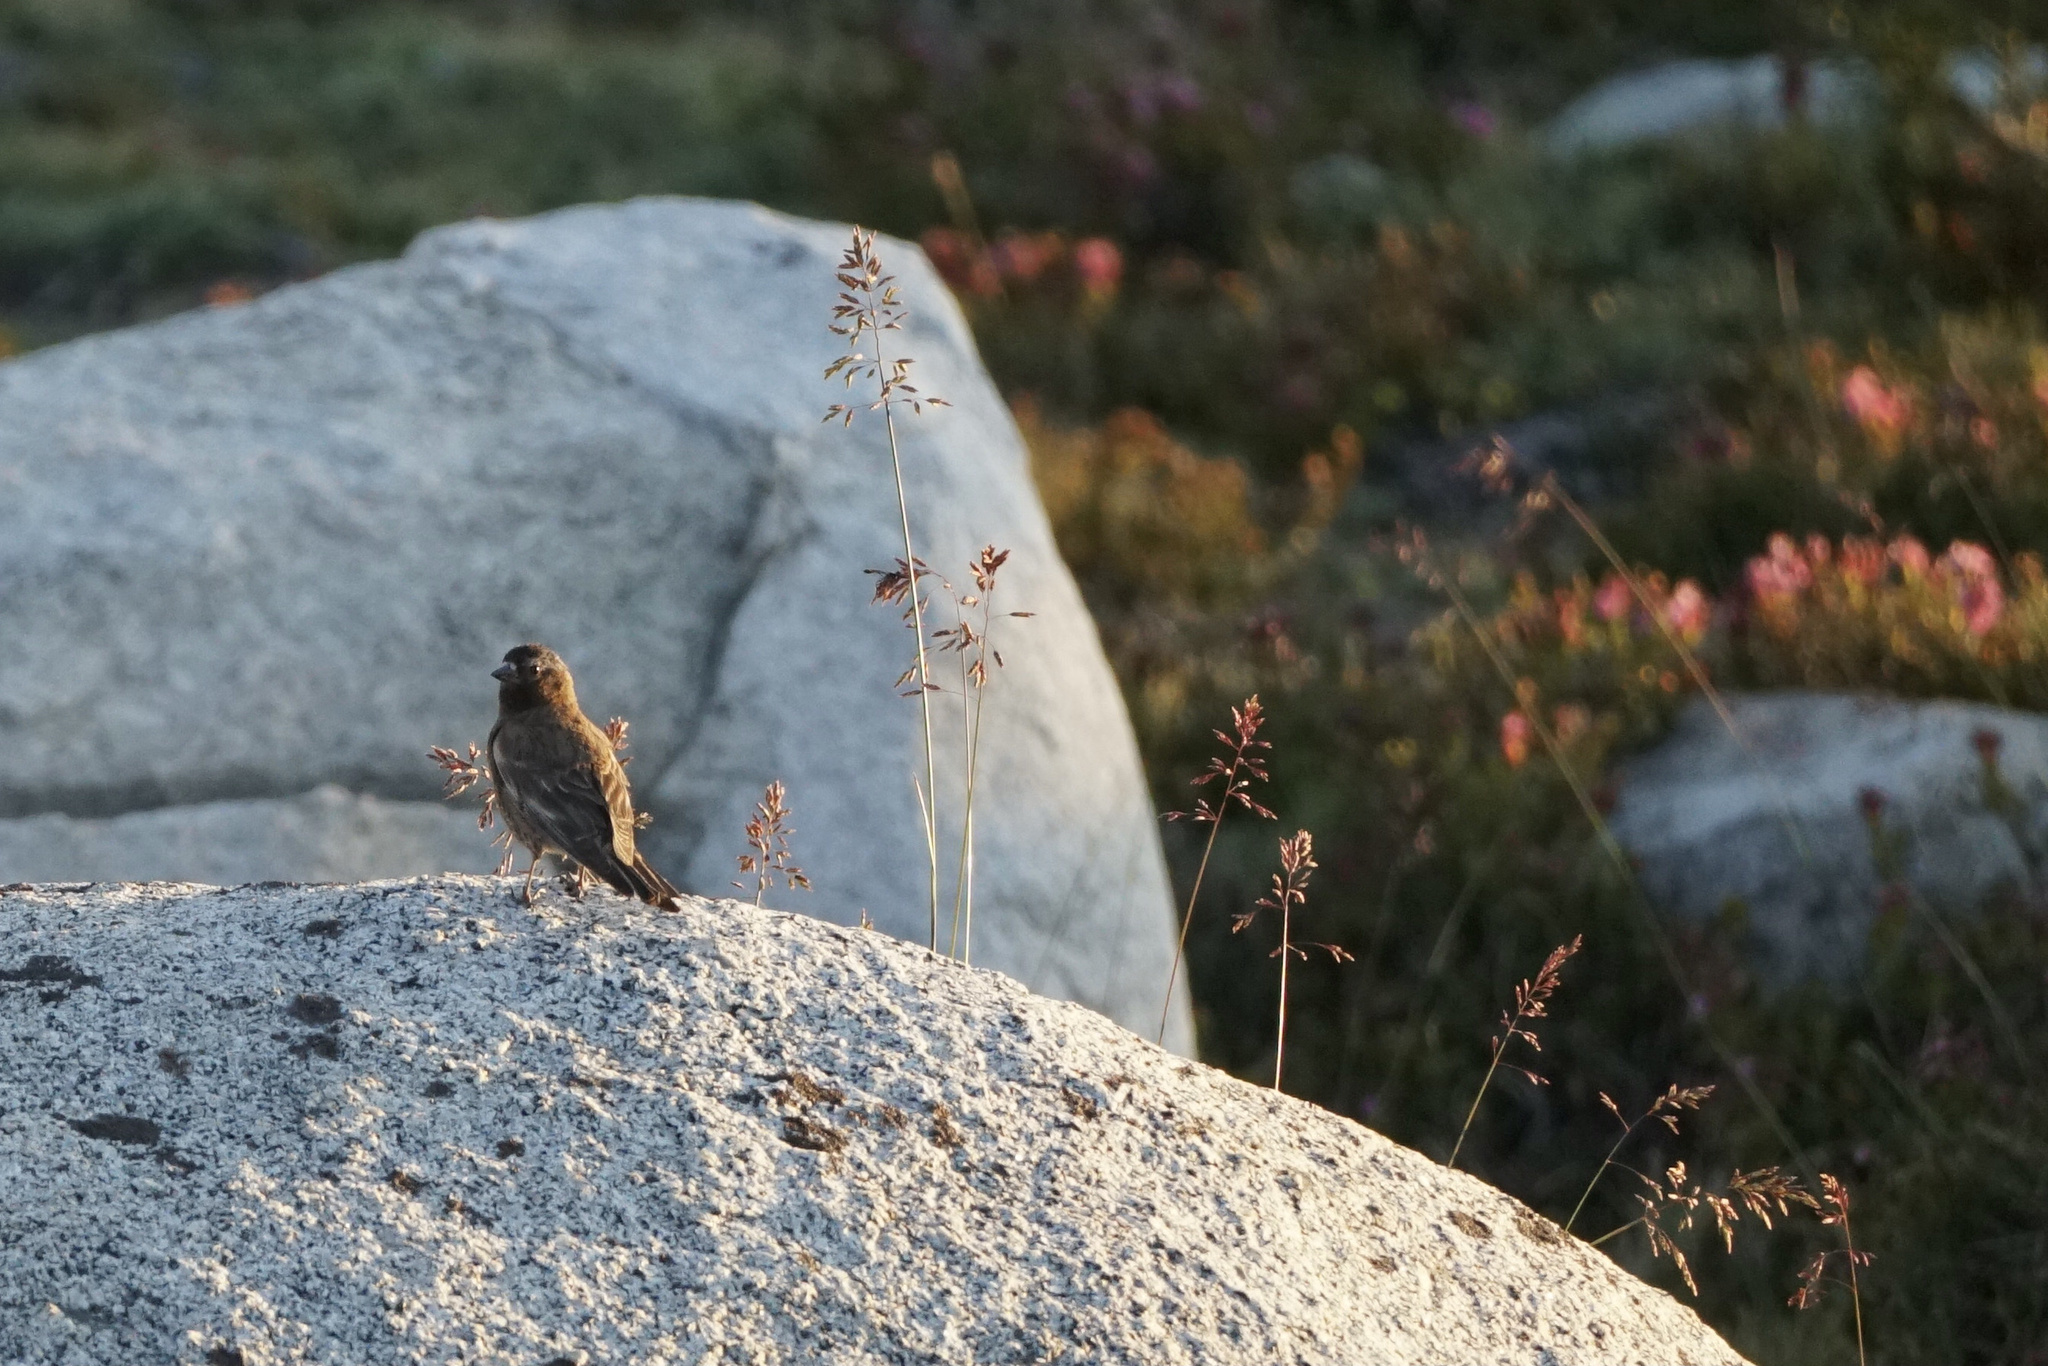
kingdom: Animalia
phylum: Chordata
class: Aves
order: Passeriformes
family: Fringillidae
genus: Leucosticte
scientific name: Leucosticte tephrocotis
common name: Gray-crowned rosy-finch
